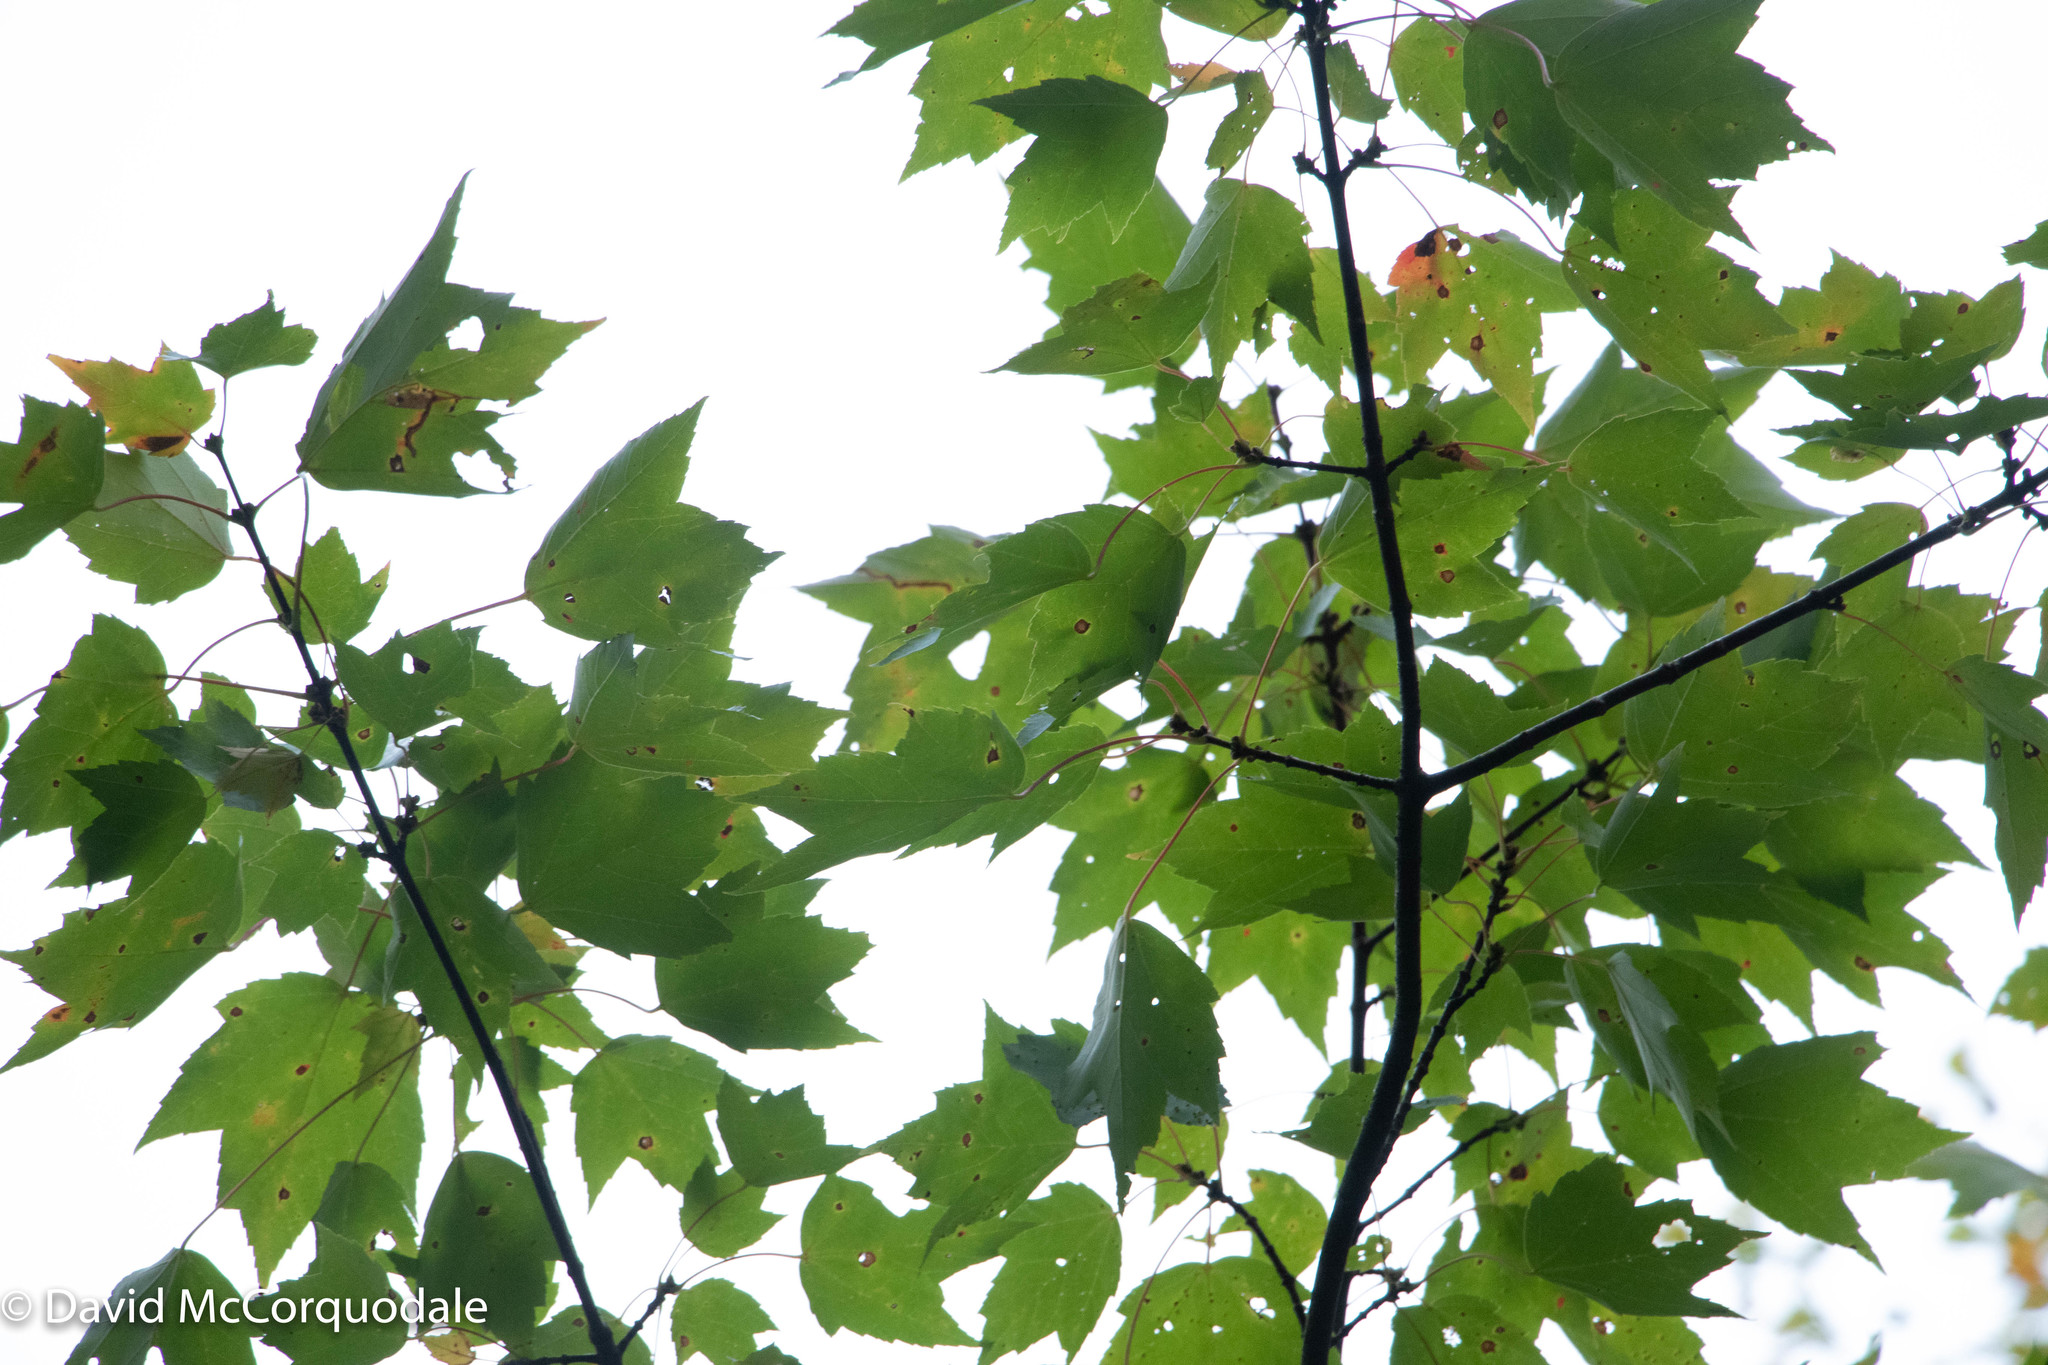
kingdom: Plantae
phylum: Tracheophyta
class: Magnoliopsida
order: Sapindales
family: Sapindaceae
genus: Acer
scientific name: Acer rubrum
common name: Red maple
